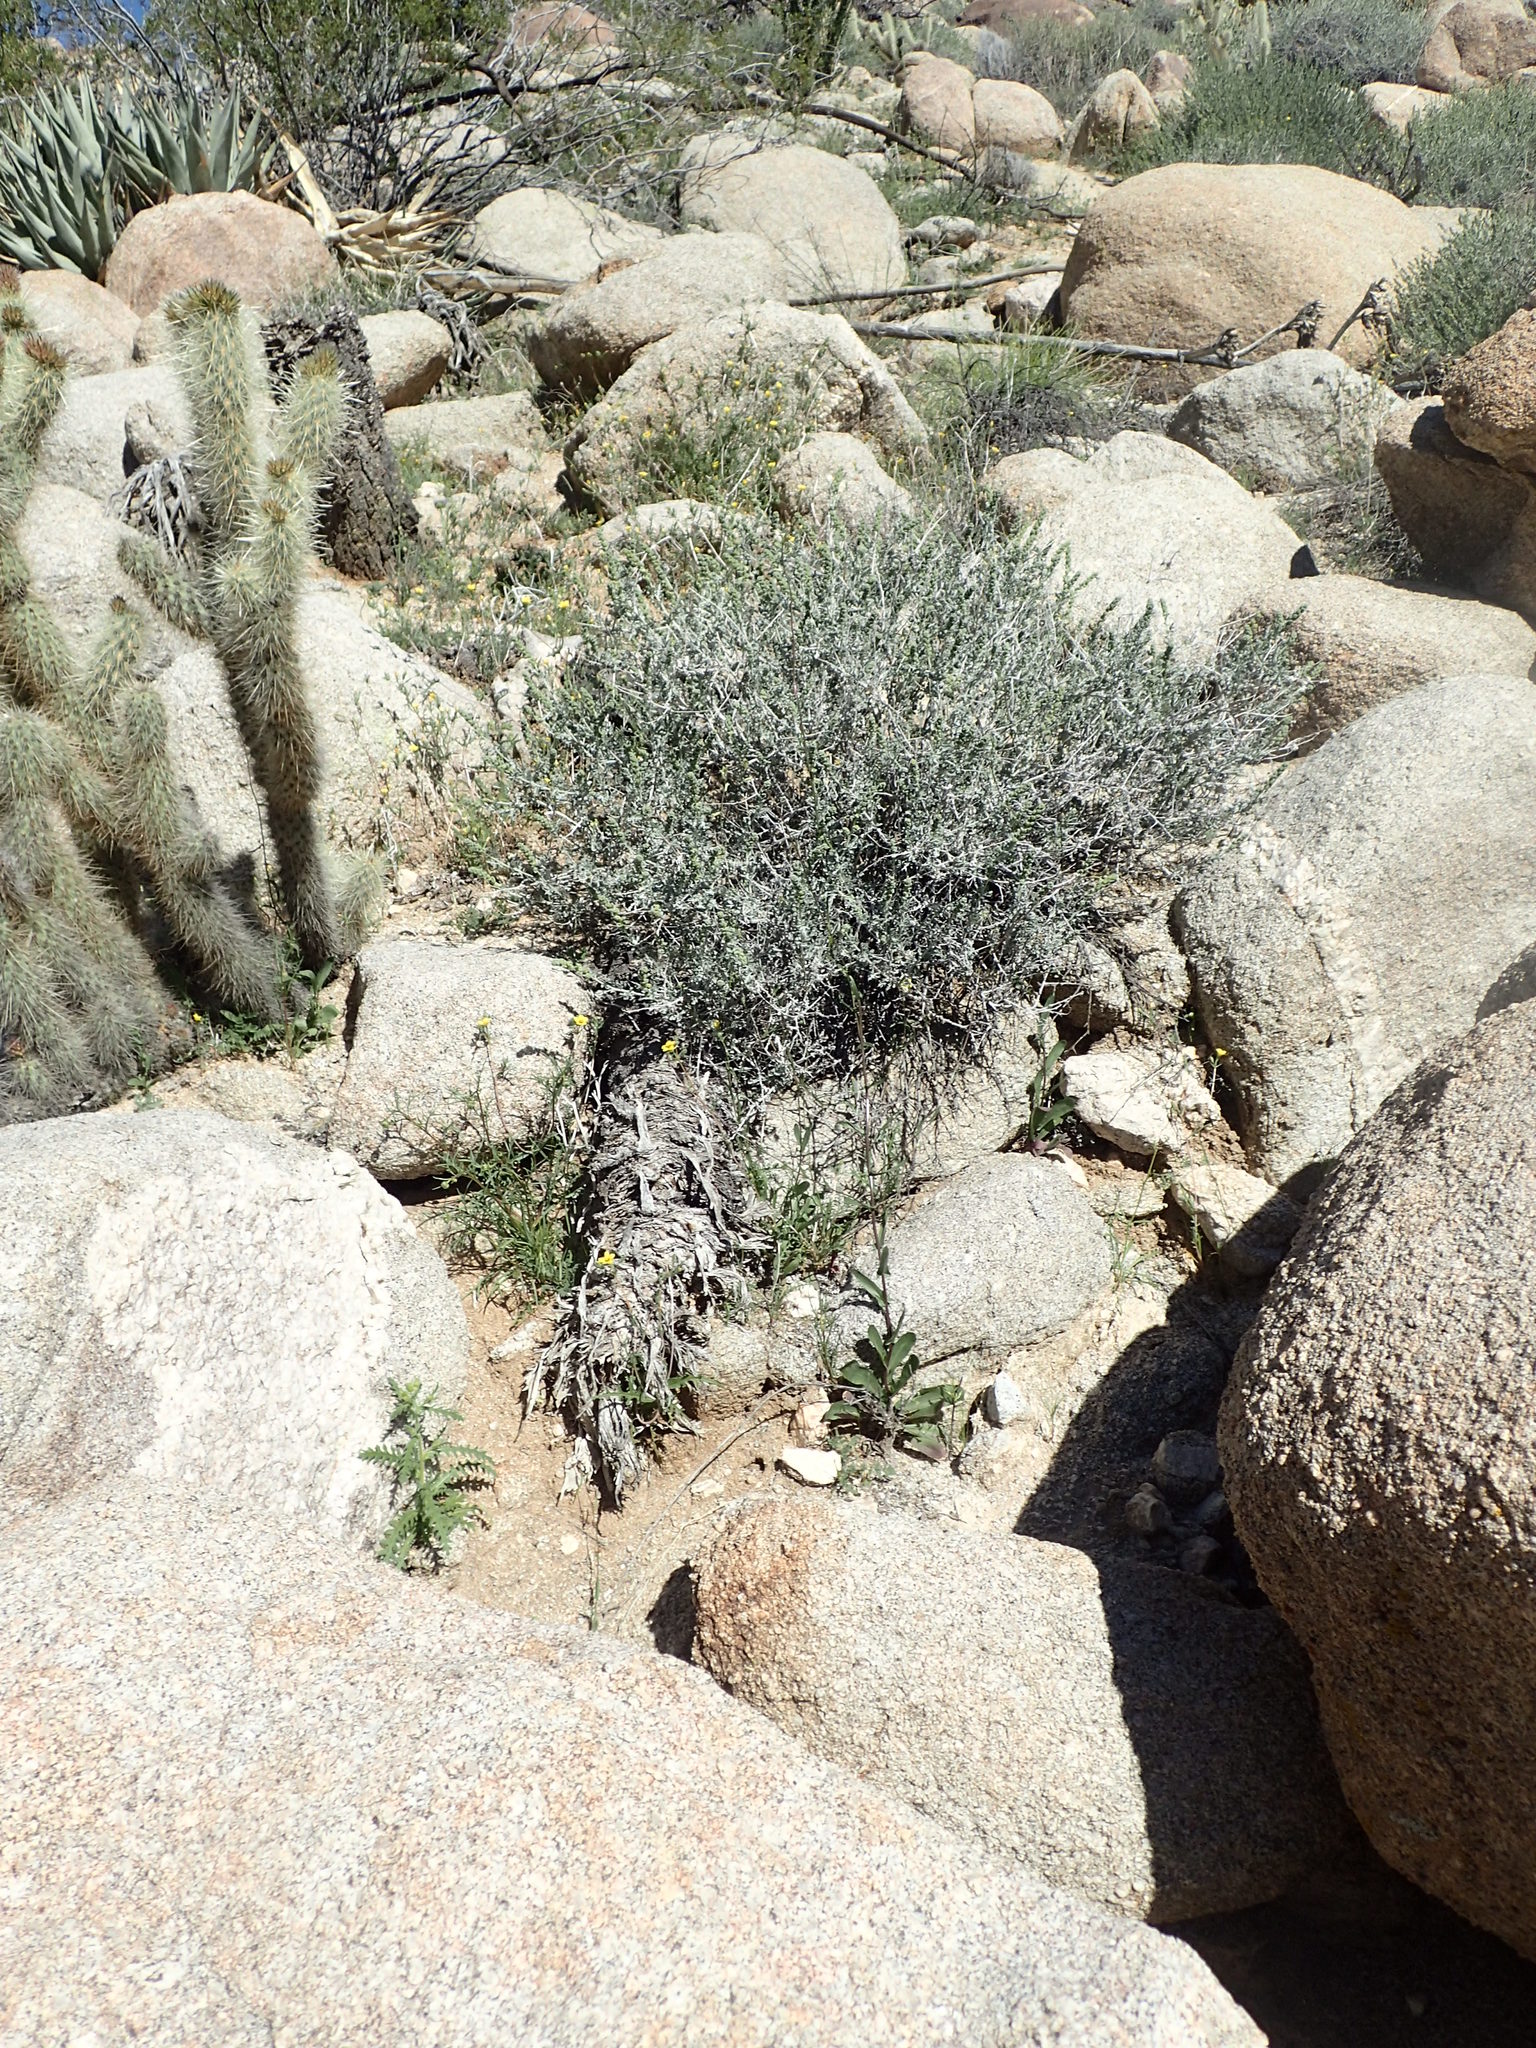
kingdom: Plantae
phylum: Tracheophyta
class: Magnoliopsida
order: Brassicales
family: Brassicaceae
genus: Streptanthus
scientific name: Streptanthus cooperi
